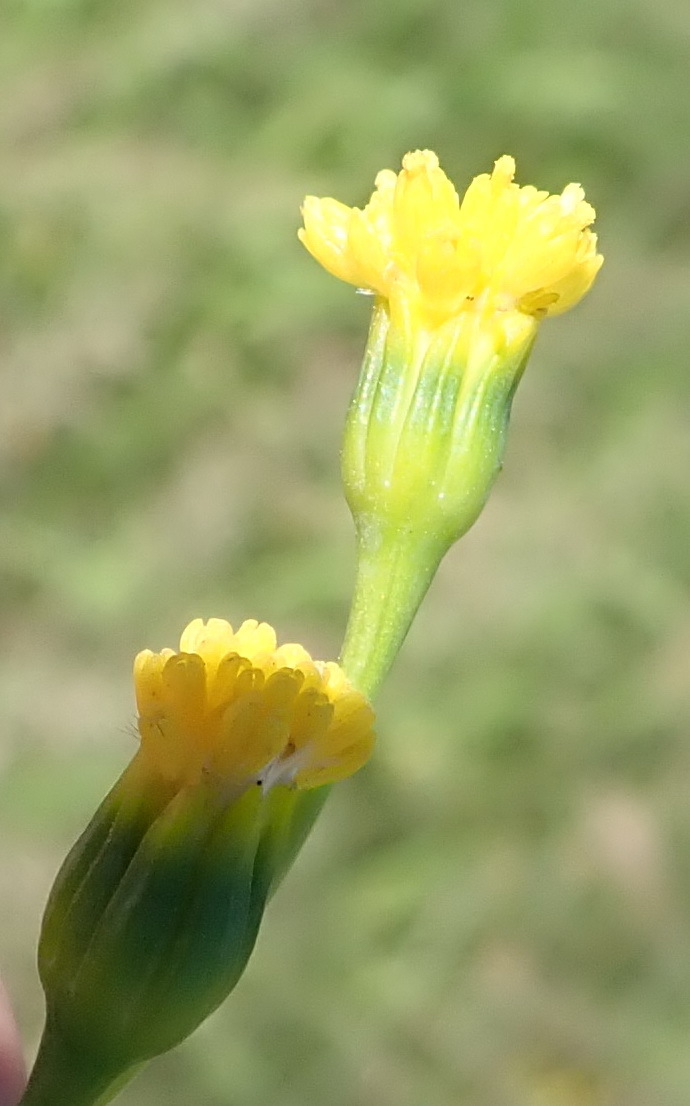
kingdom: Plantae
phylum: Tracheophyta
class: Magnoliopsida
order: Asterales
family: Asteraceae
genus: Hertia
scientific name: Hertia kraussii
